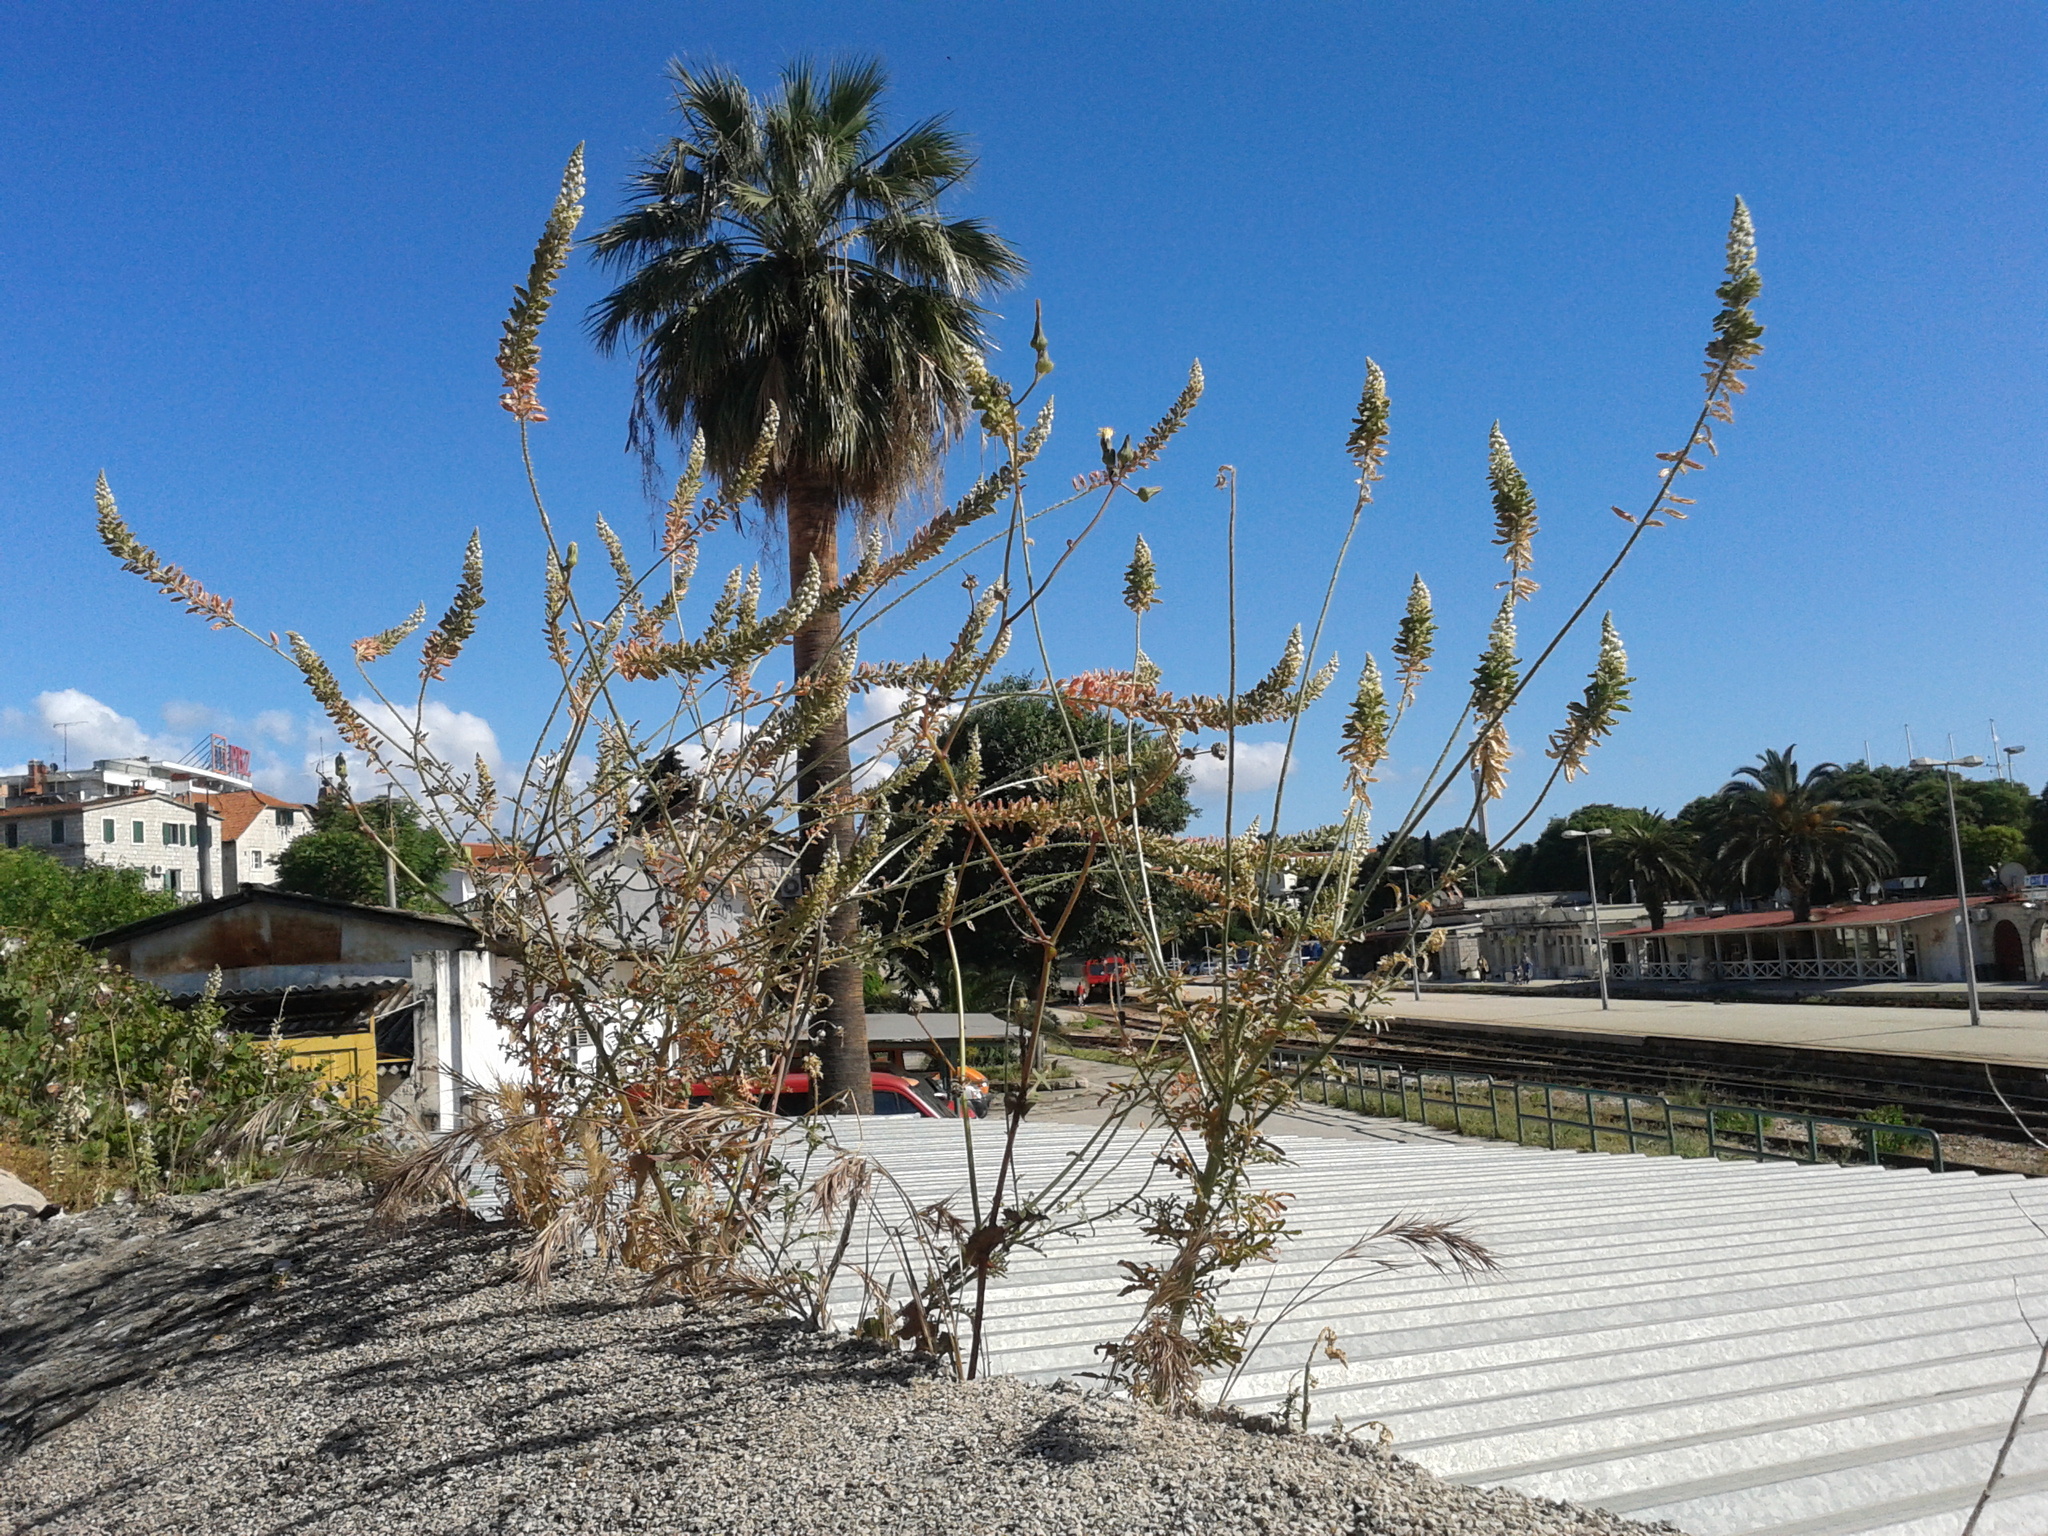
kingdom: Plantae
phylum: Tracheophyta
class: Magnoliopsida
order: Brassicales
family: Resedaceae
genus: Reseda
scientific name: Reseda alba
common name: White mignonette
